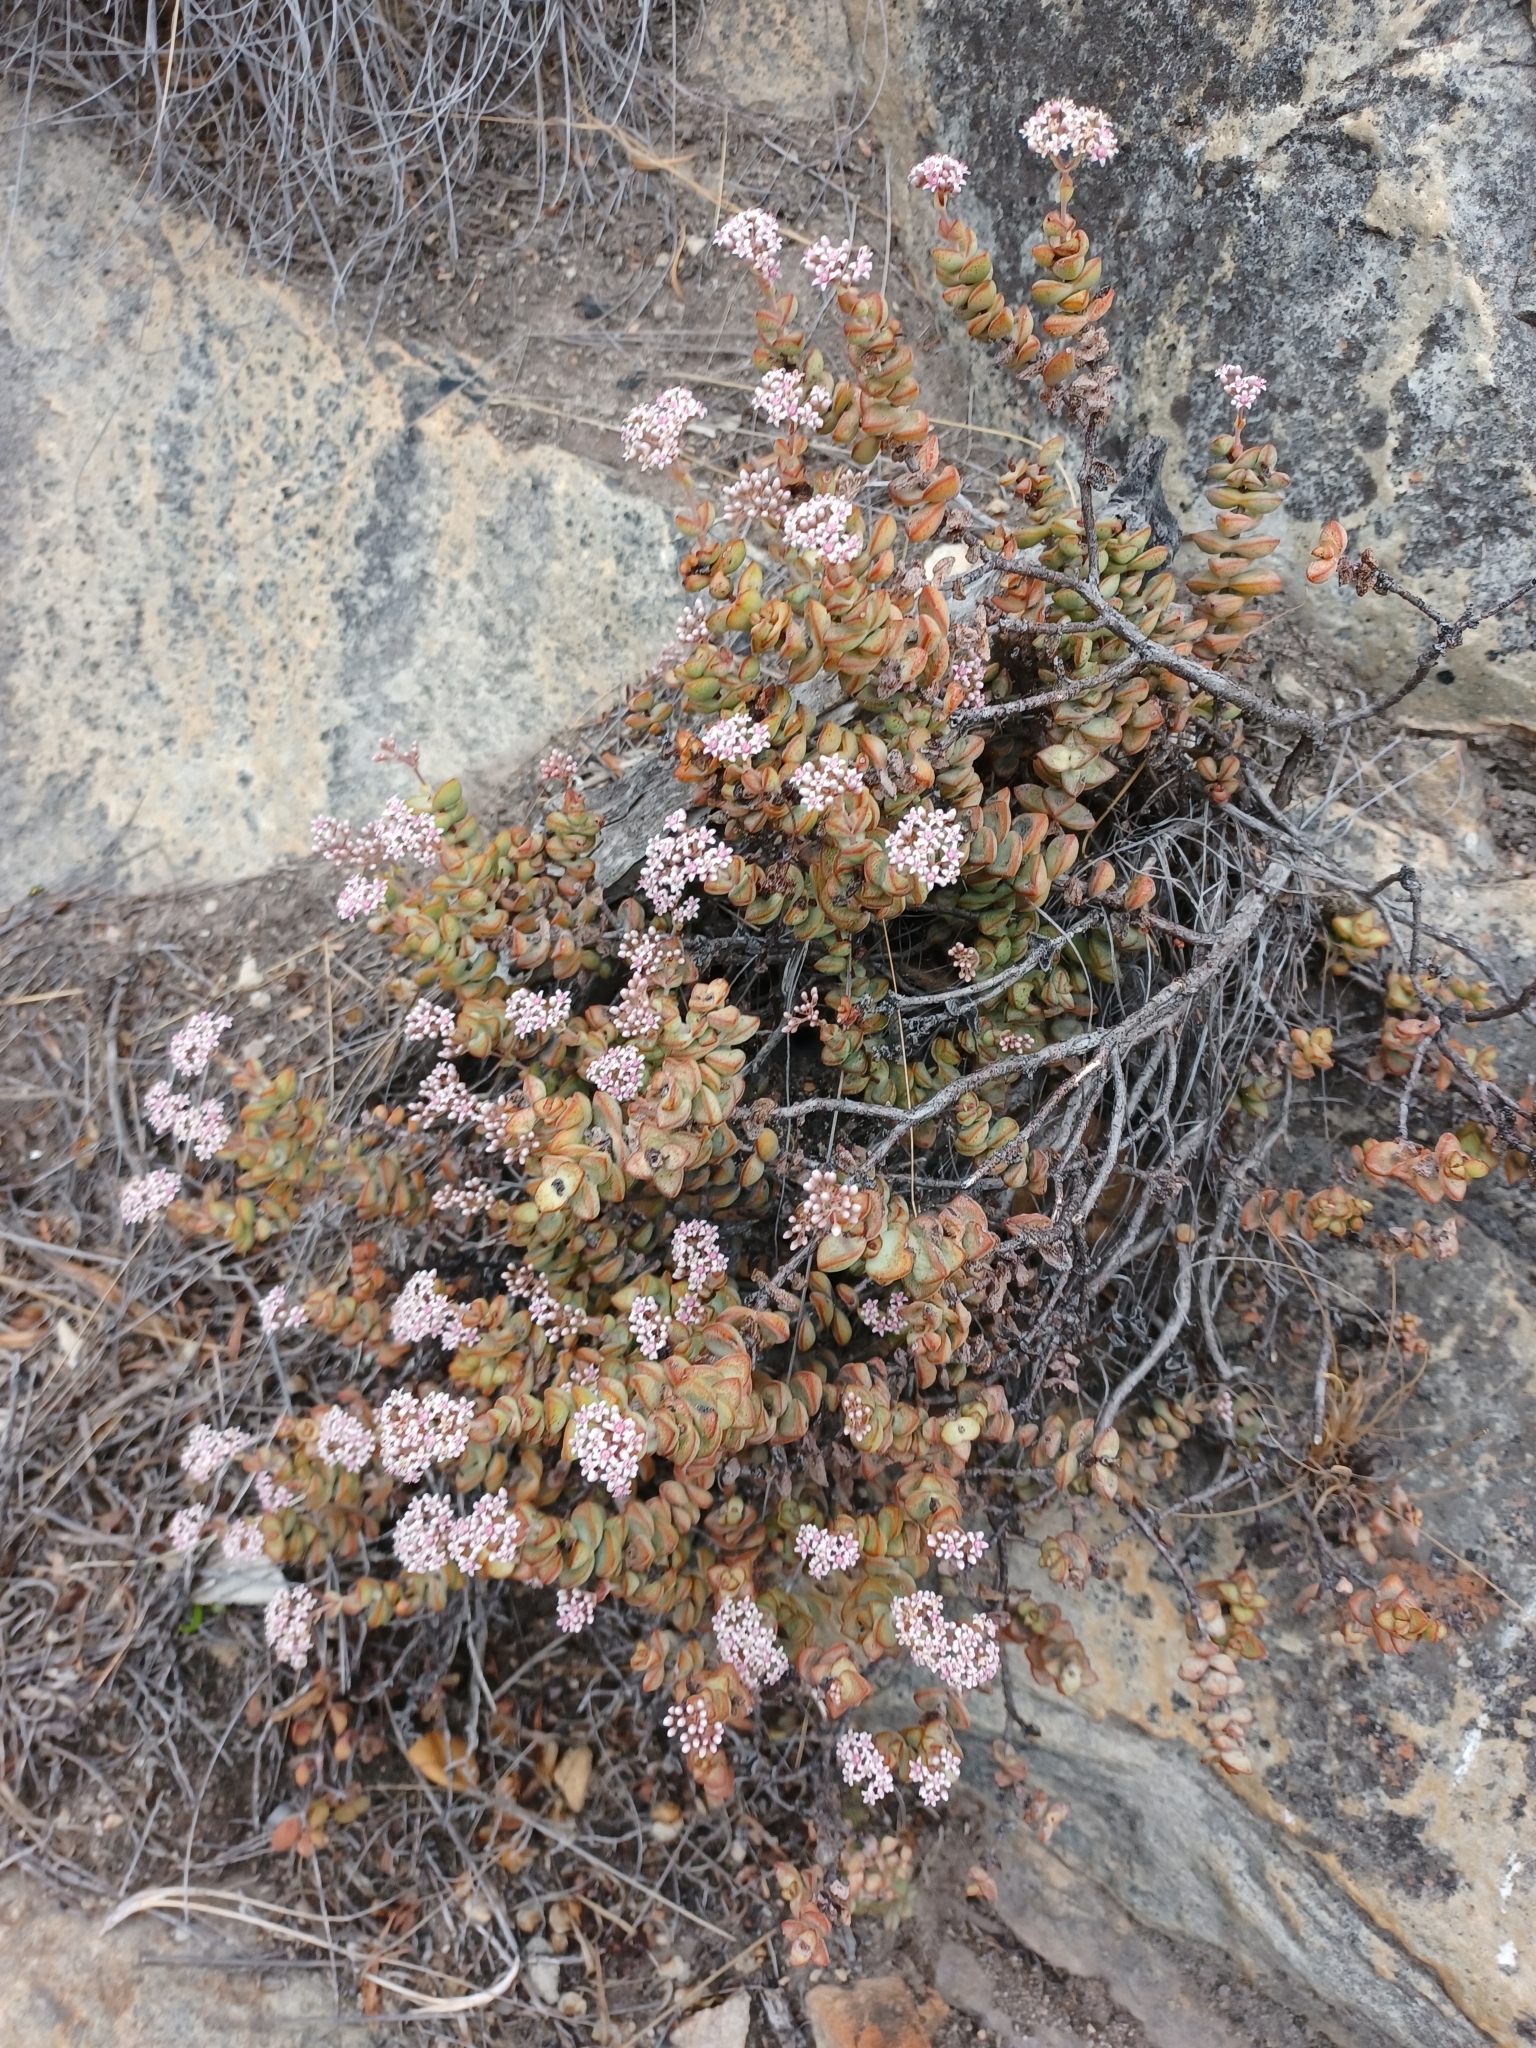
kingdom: Plantae
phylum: Tracheophyta
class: Magnoliopsida
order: Saxifragales
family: Crassulaceae
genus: Crassula
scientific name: Crassula rupestris
